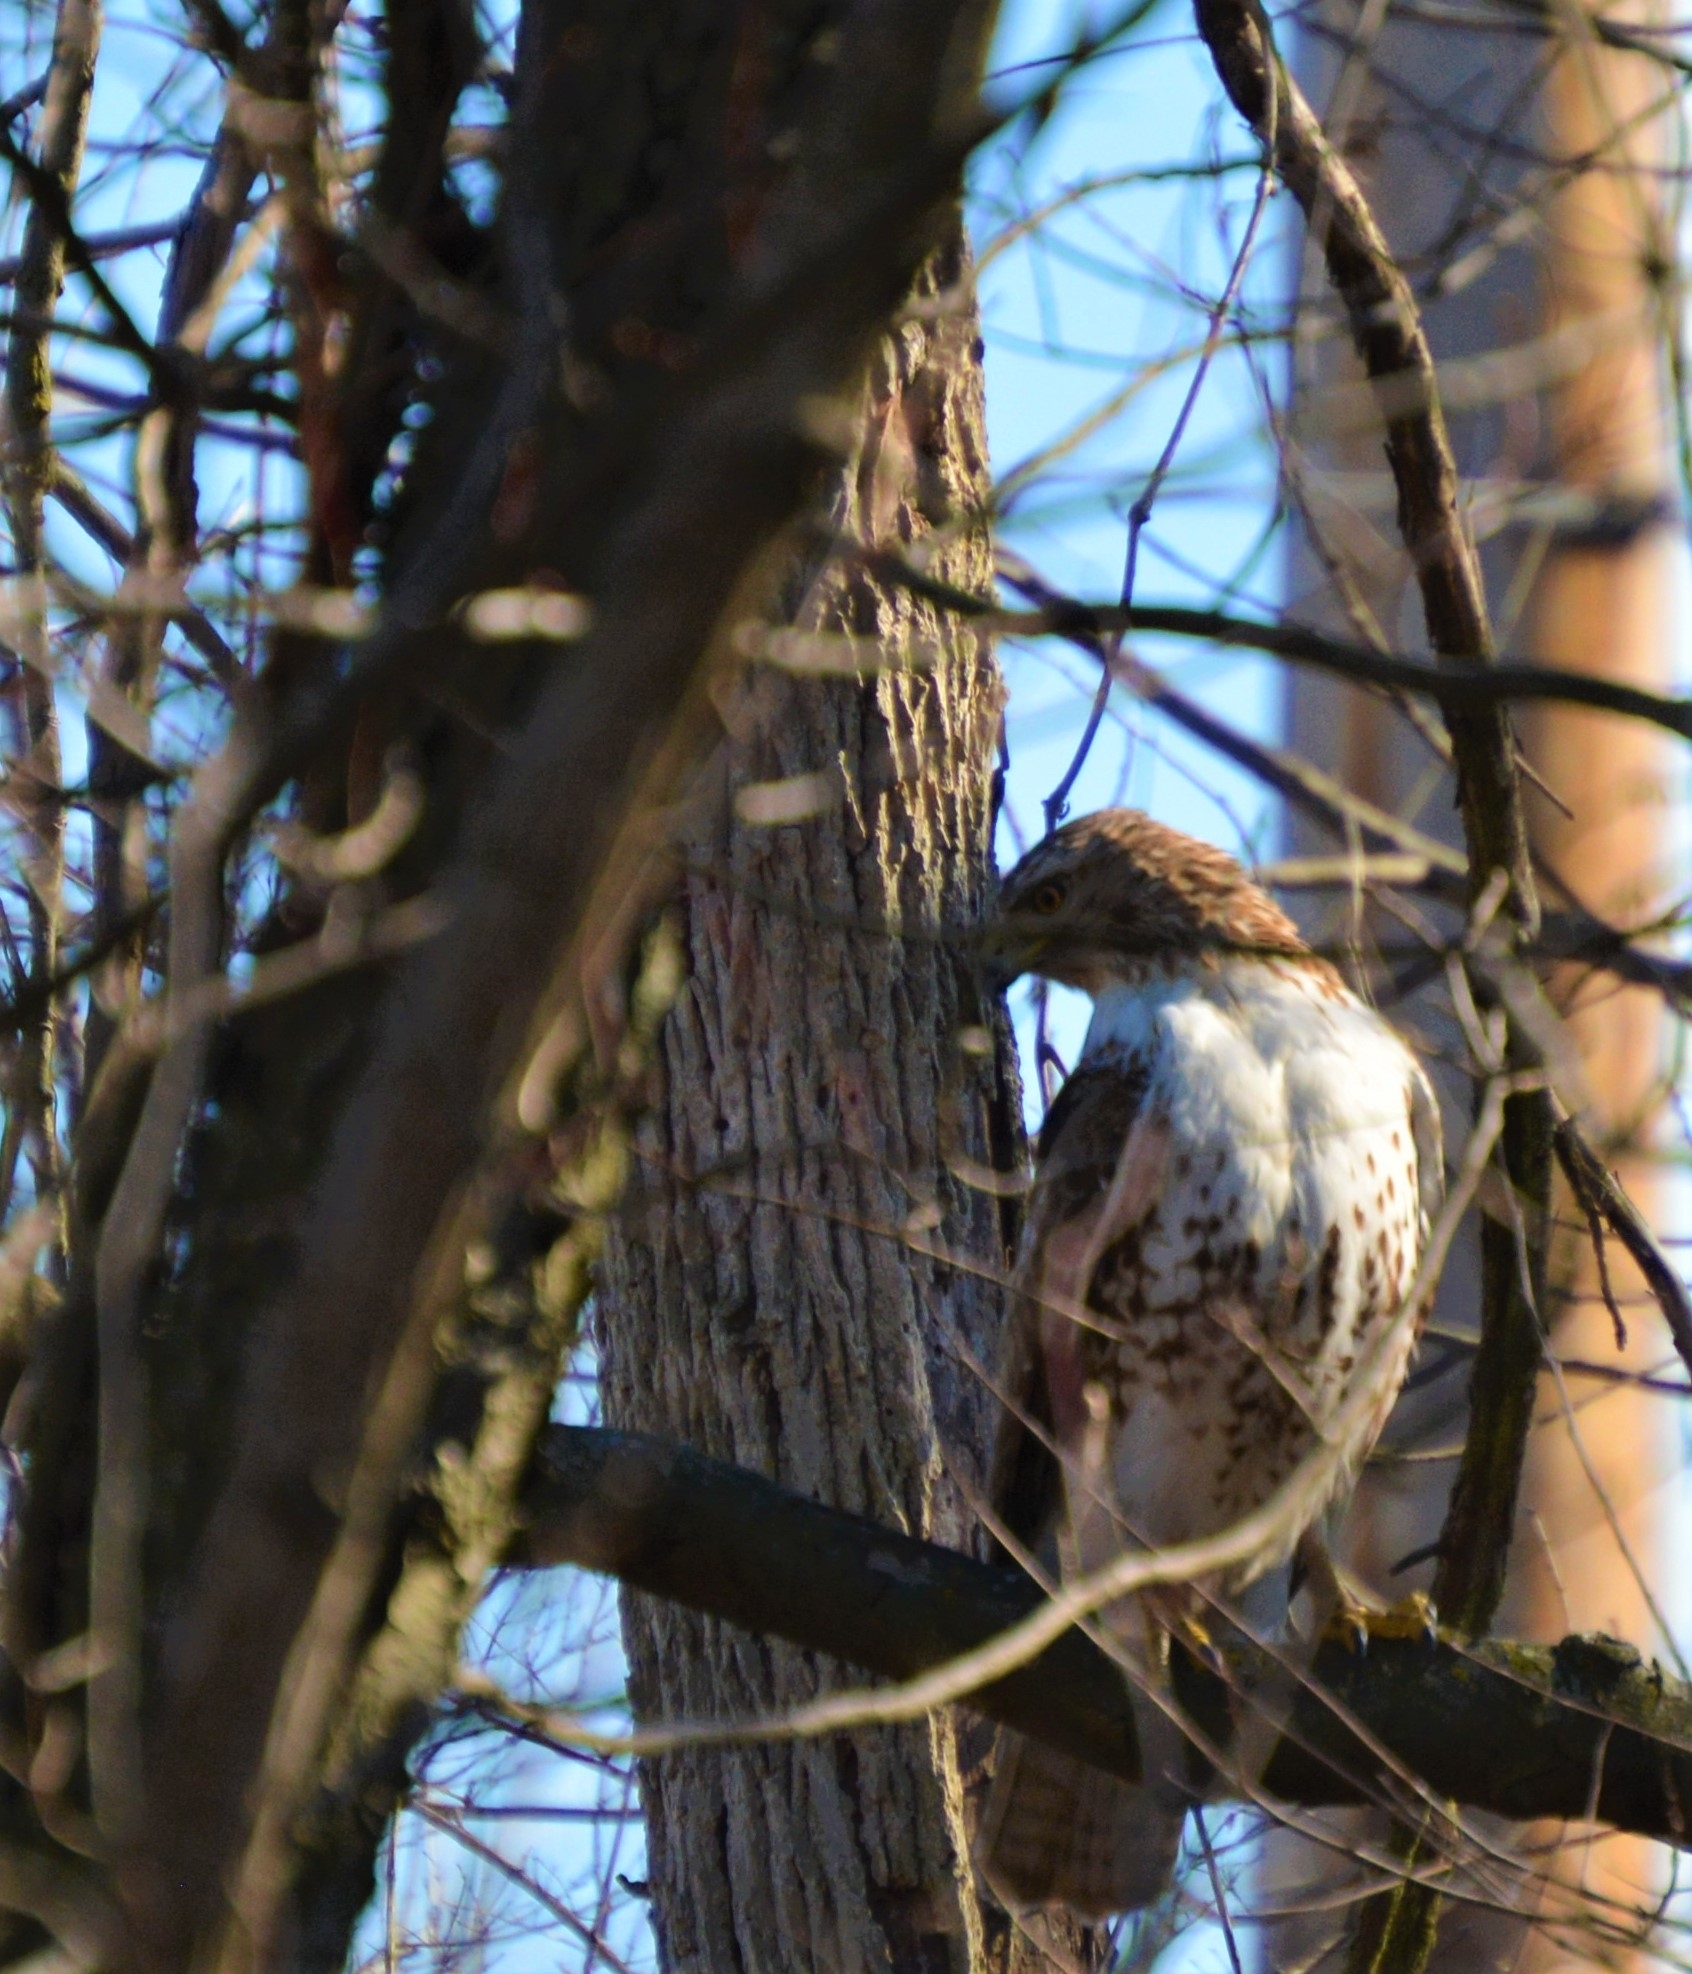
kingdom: Animalia
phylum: Chordata
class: Aves
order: Accipitriformes
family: Accipitridae
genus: Buteo
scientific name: Buteo jamaicensis
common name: Red-tailed hawk
